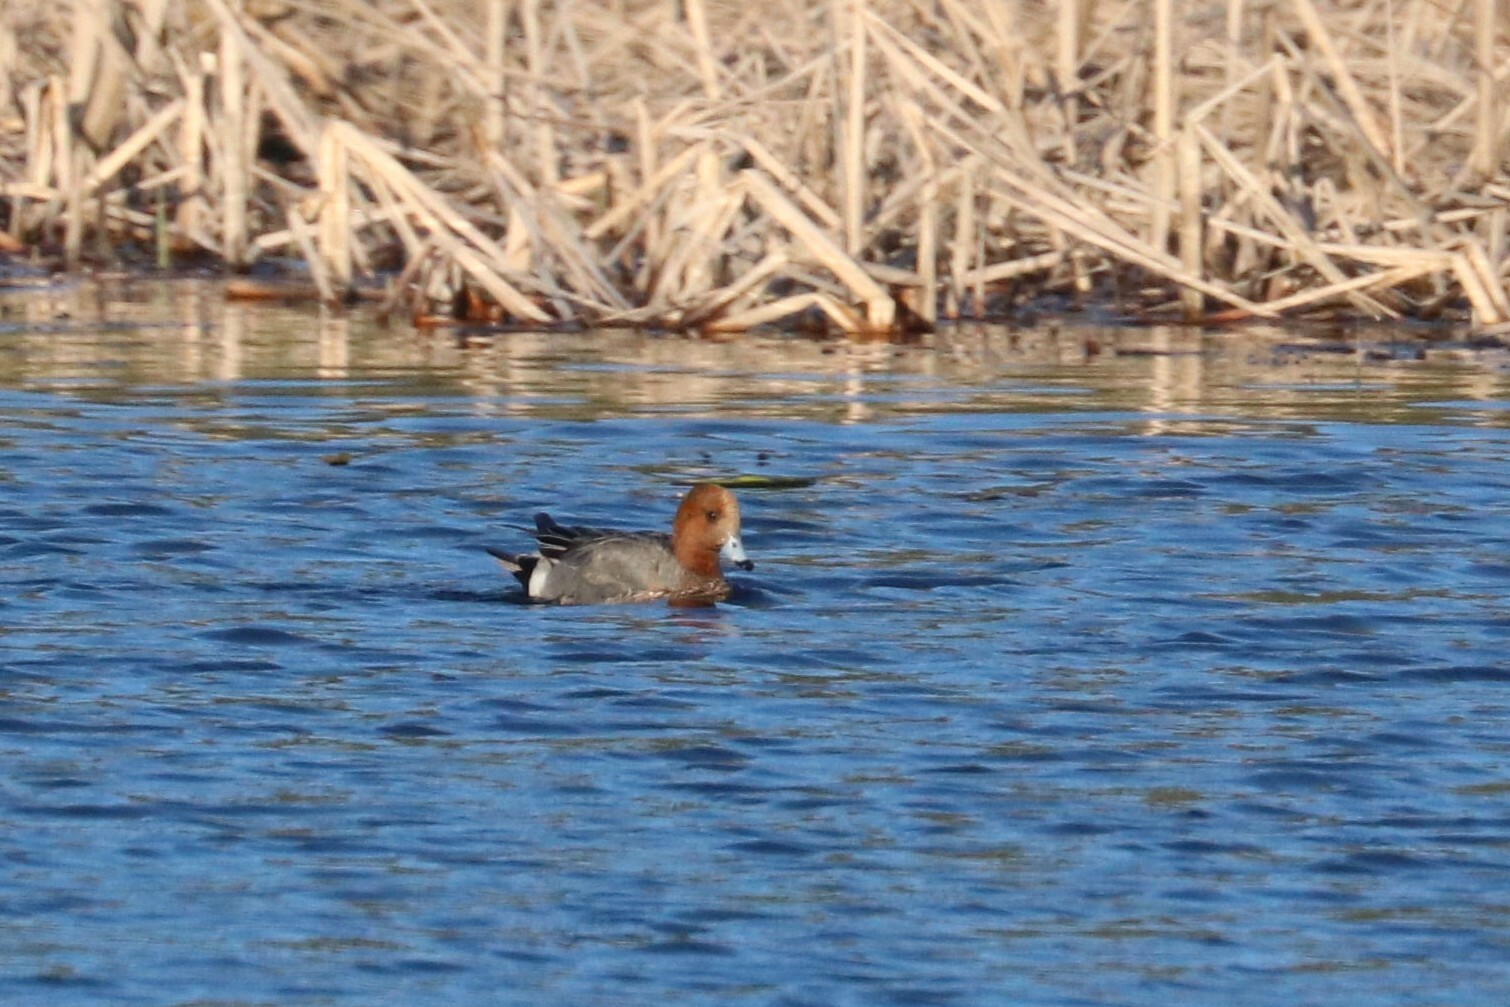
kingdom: Animalia
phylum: Chordata
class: Aves
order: Anseriformes
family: Anatidae
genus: Mareca
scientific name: Mareca penelope
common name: Eurasian wigeon
